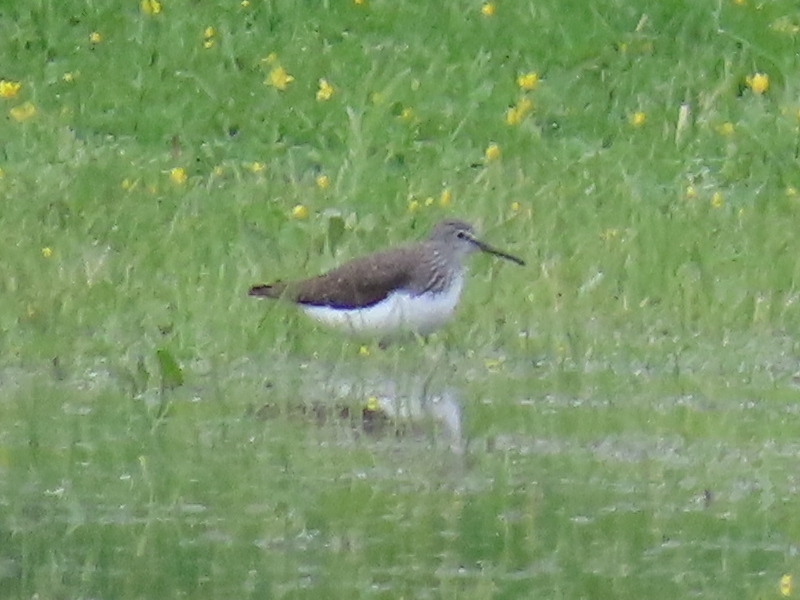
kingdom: Animalia
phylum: Chordata
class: Aves
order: Charadriiformes
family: Scolopacidae
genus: Tringa
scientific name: Tringa ochropus
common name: Green sandpiper
